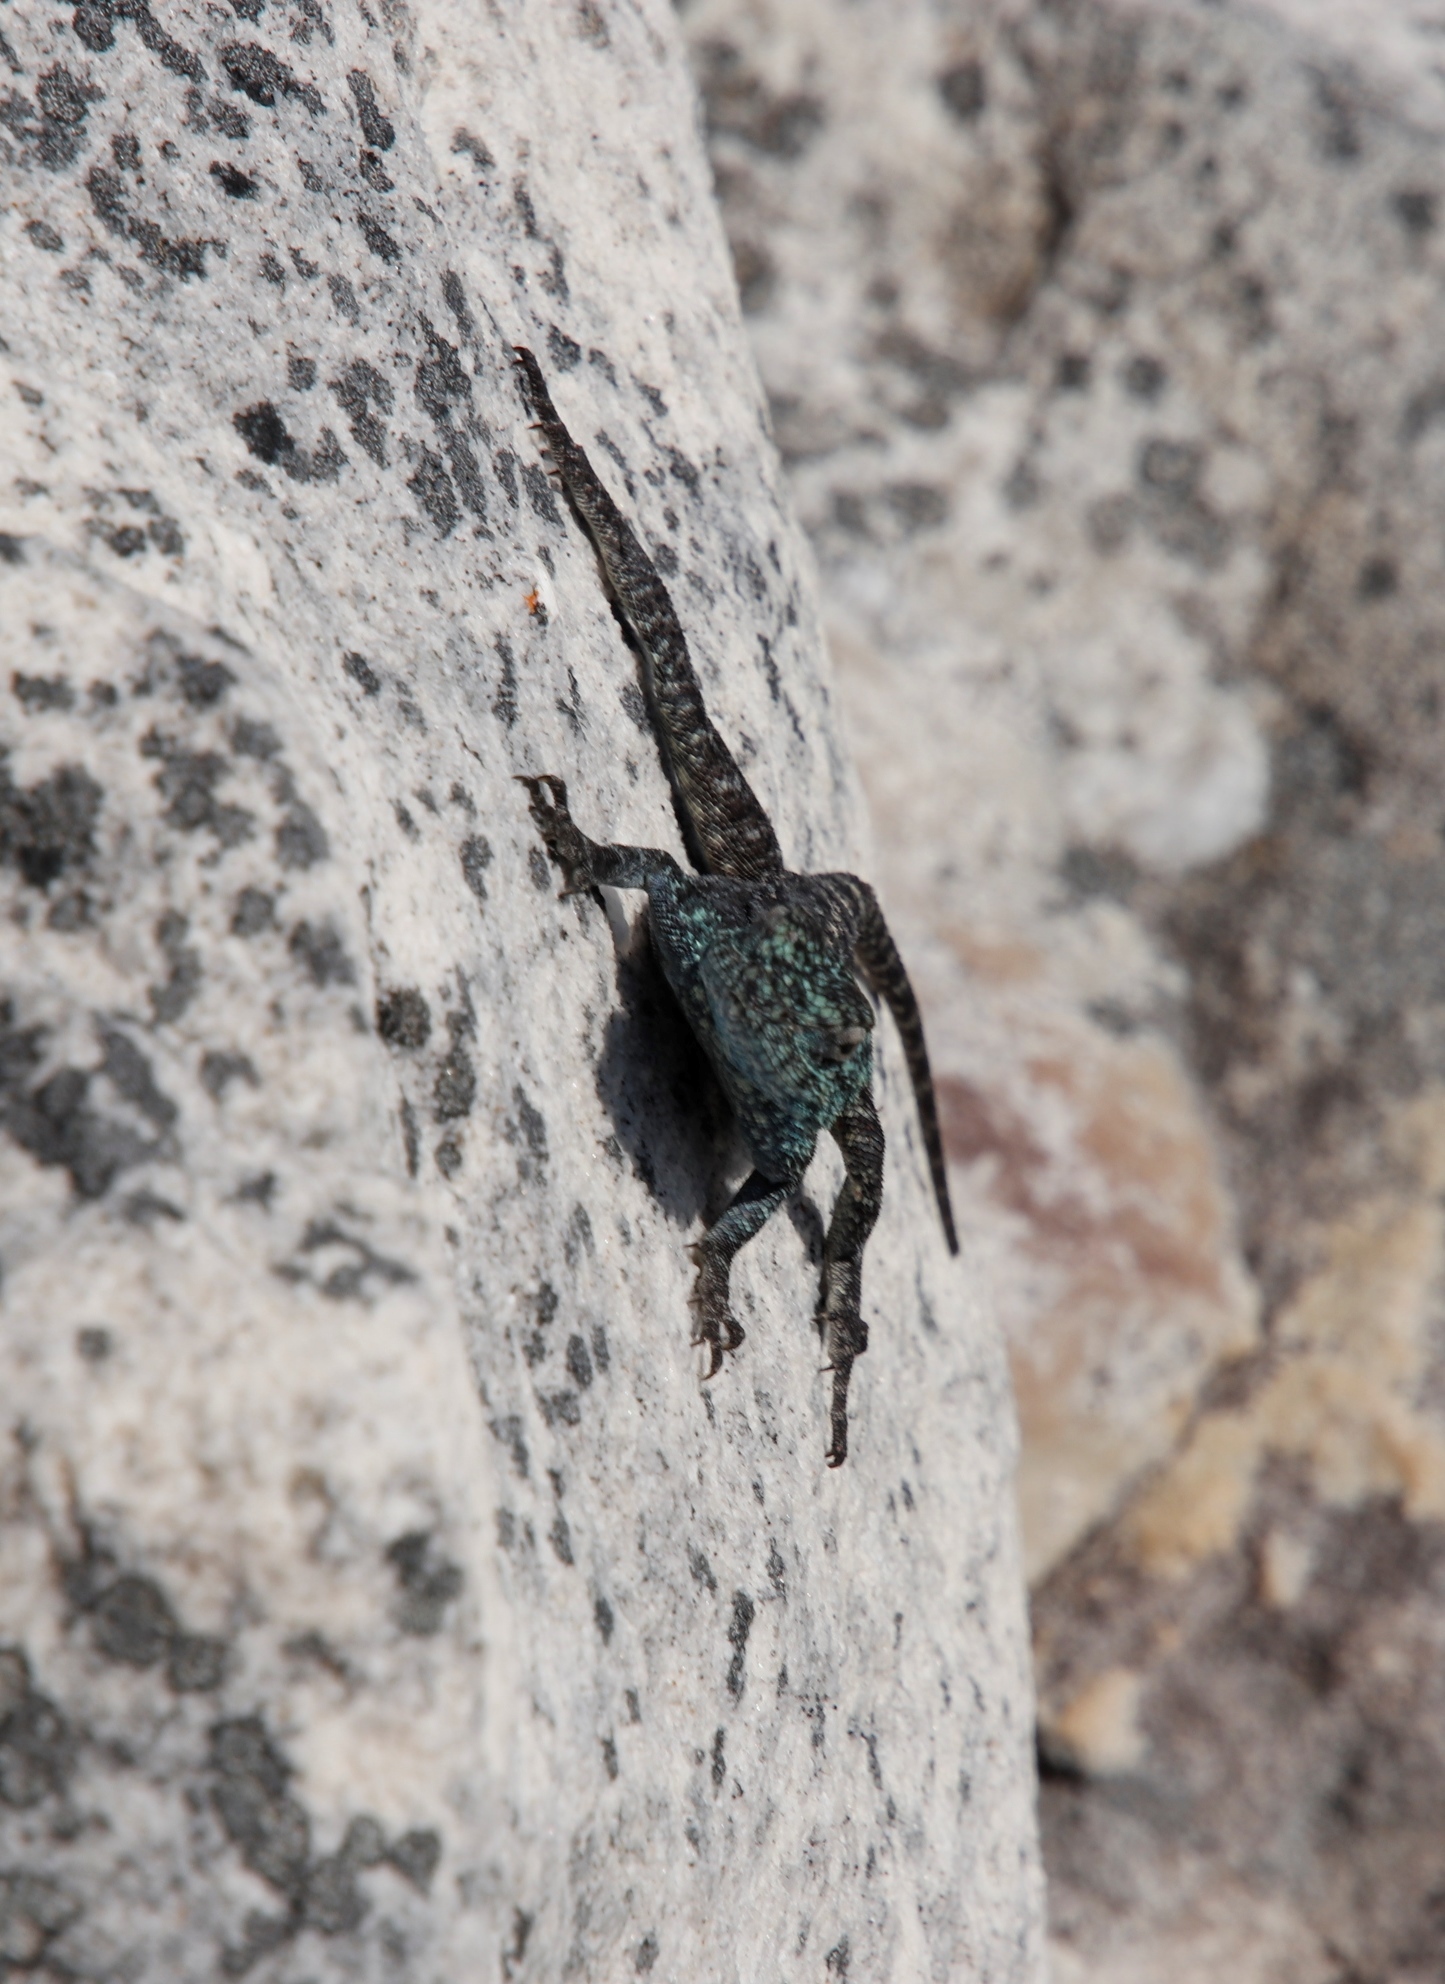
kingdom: Animalia
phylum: Chordata
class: Squamata
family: Agamidae
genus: Agama
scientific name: Agama atra
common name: Southern african rock agama
